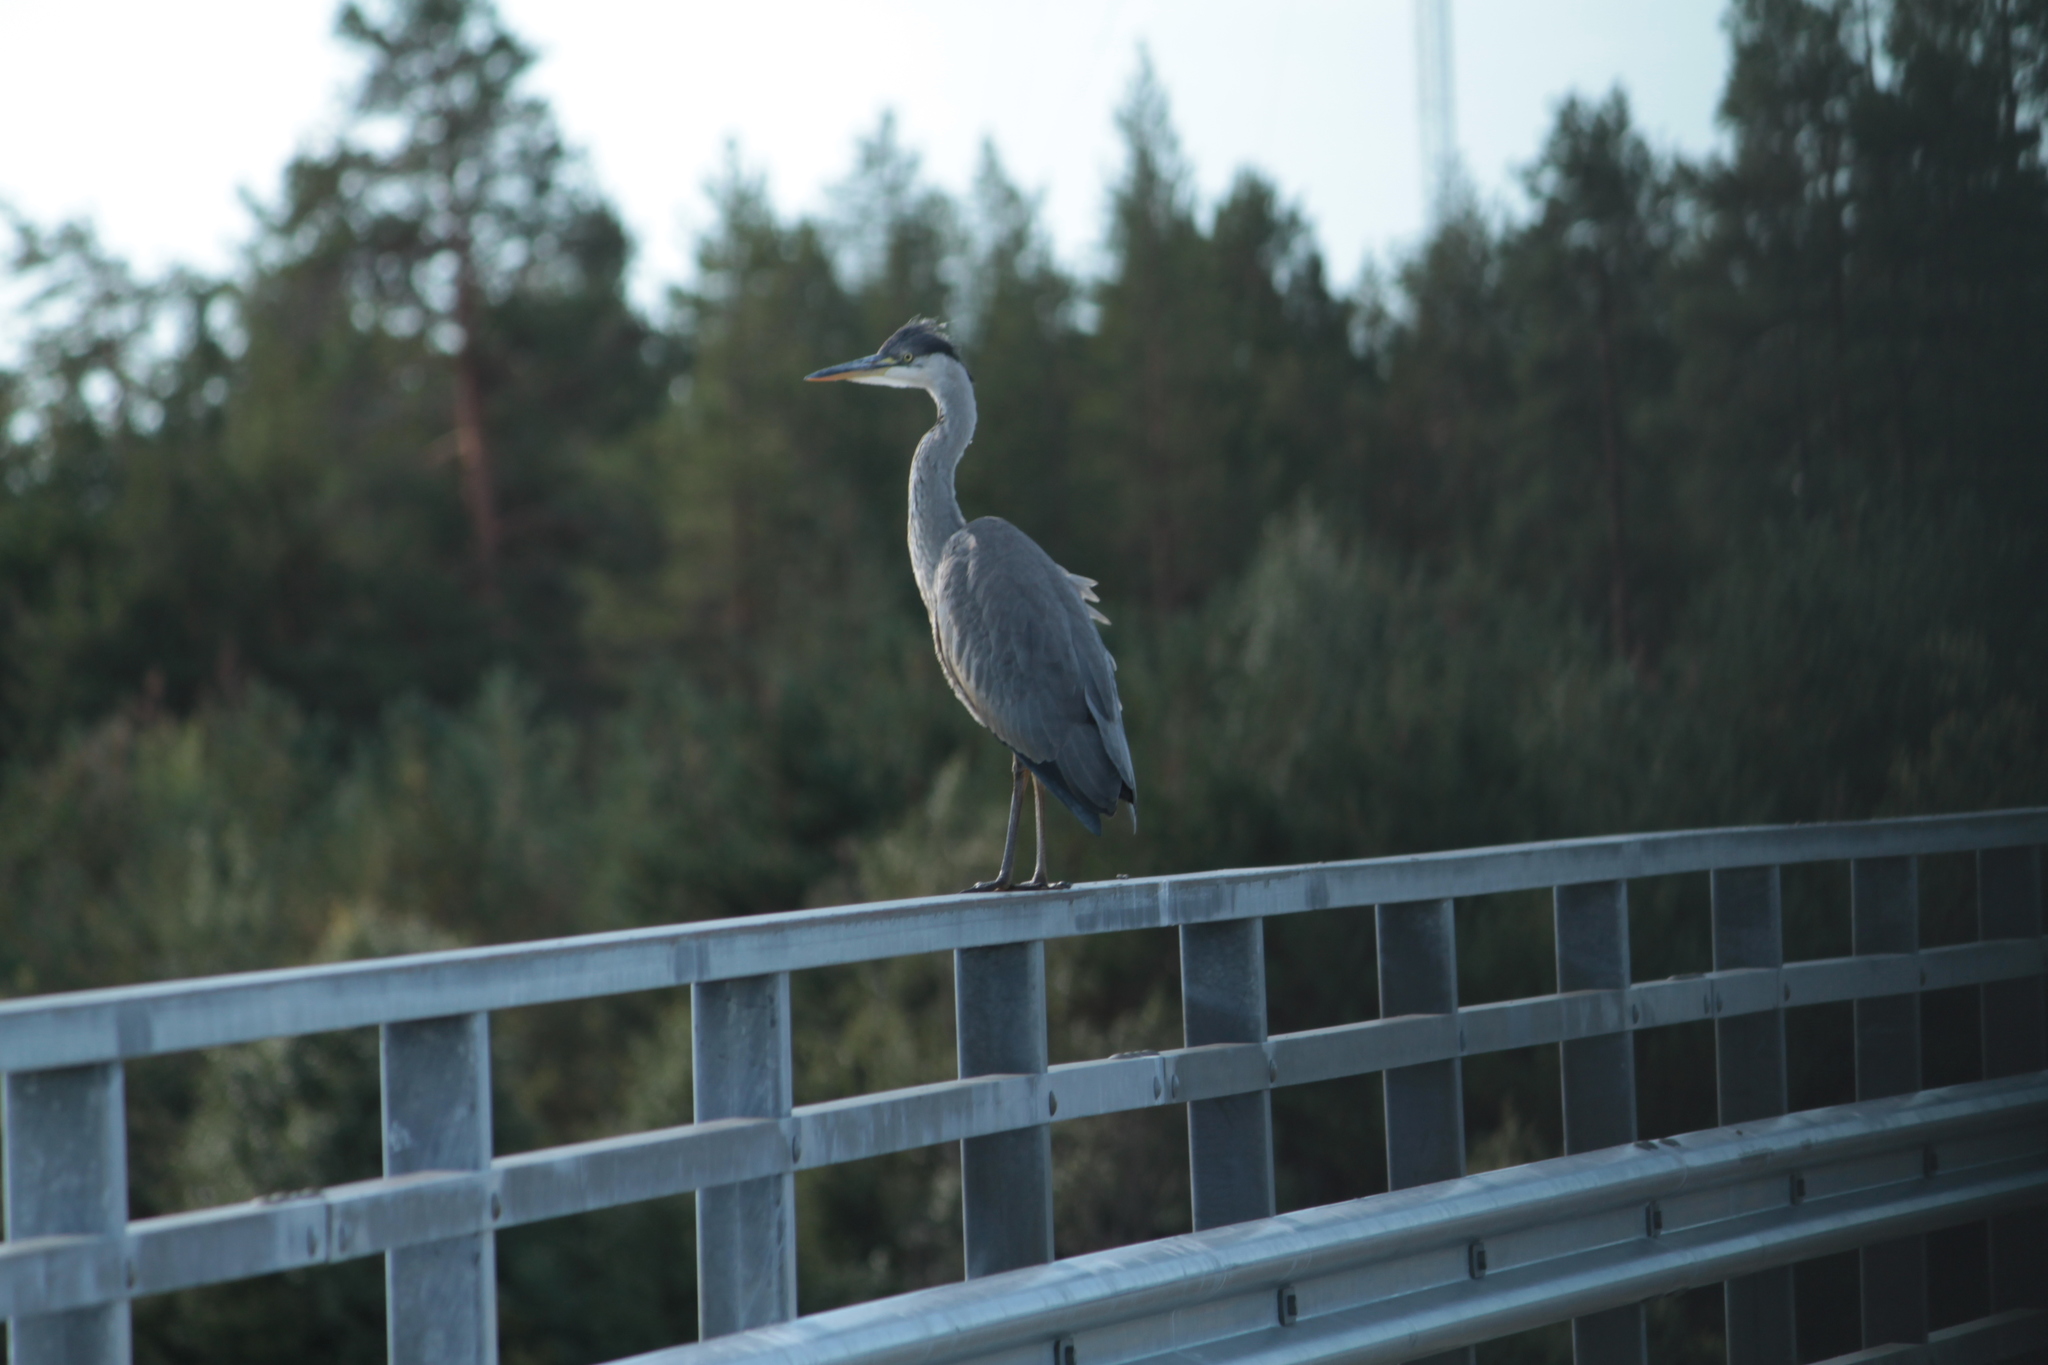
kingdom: Animalia
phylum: Chordata
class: Aves
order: Pelecaniformes
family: Ardeidae
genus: Ardea
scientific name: Ardea cinerea
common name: Grey heron
